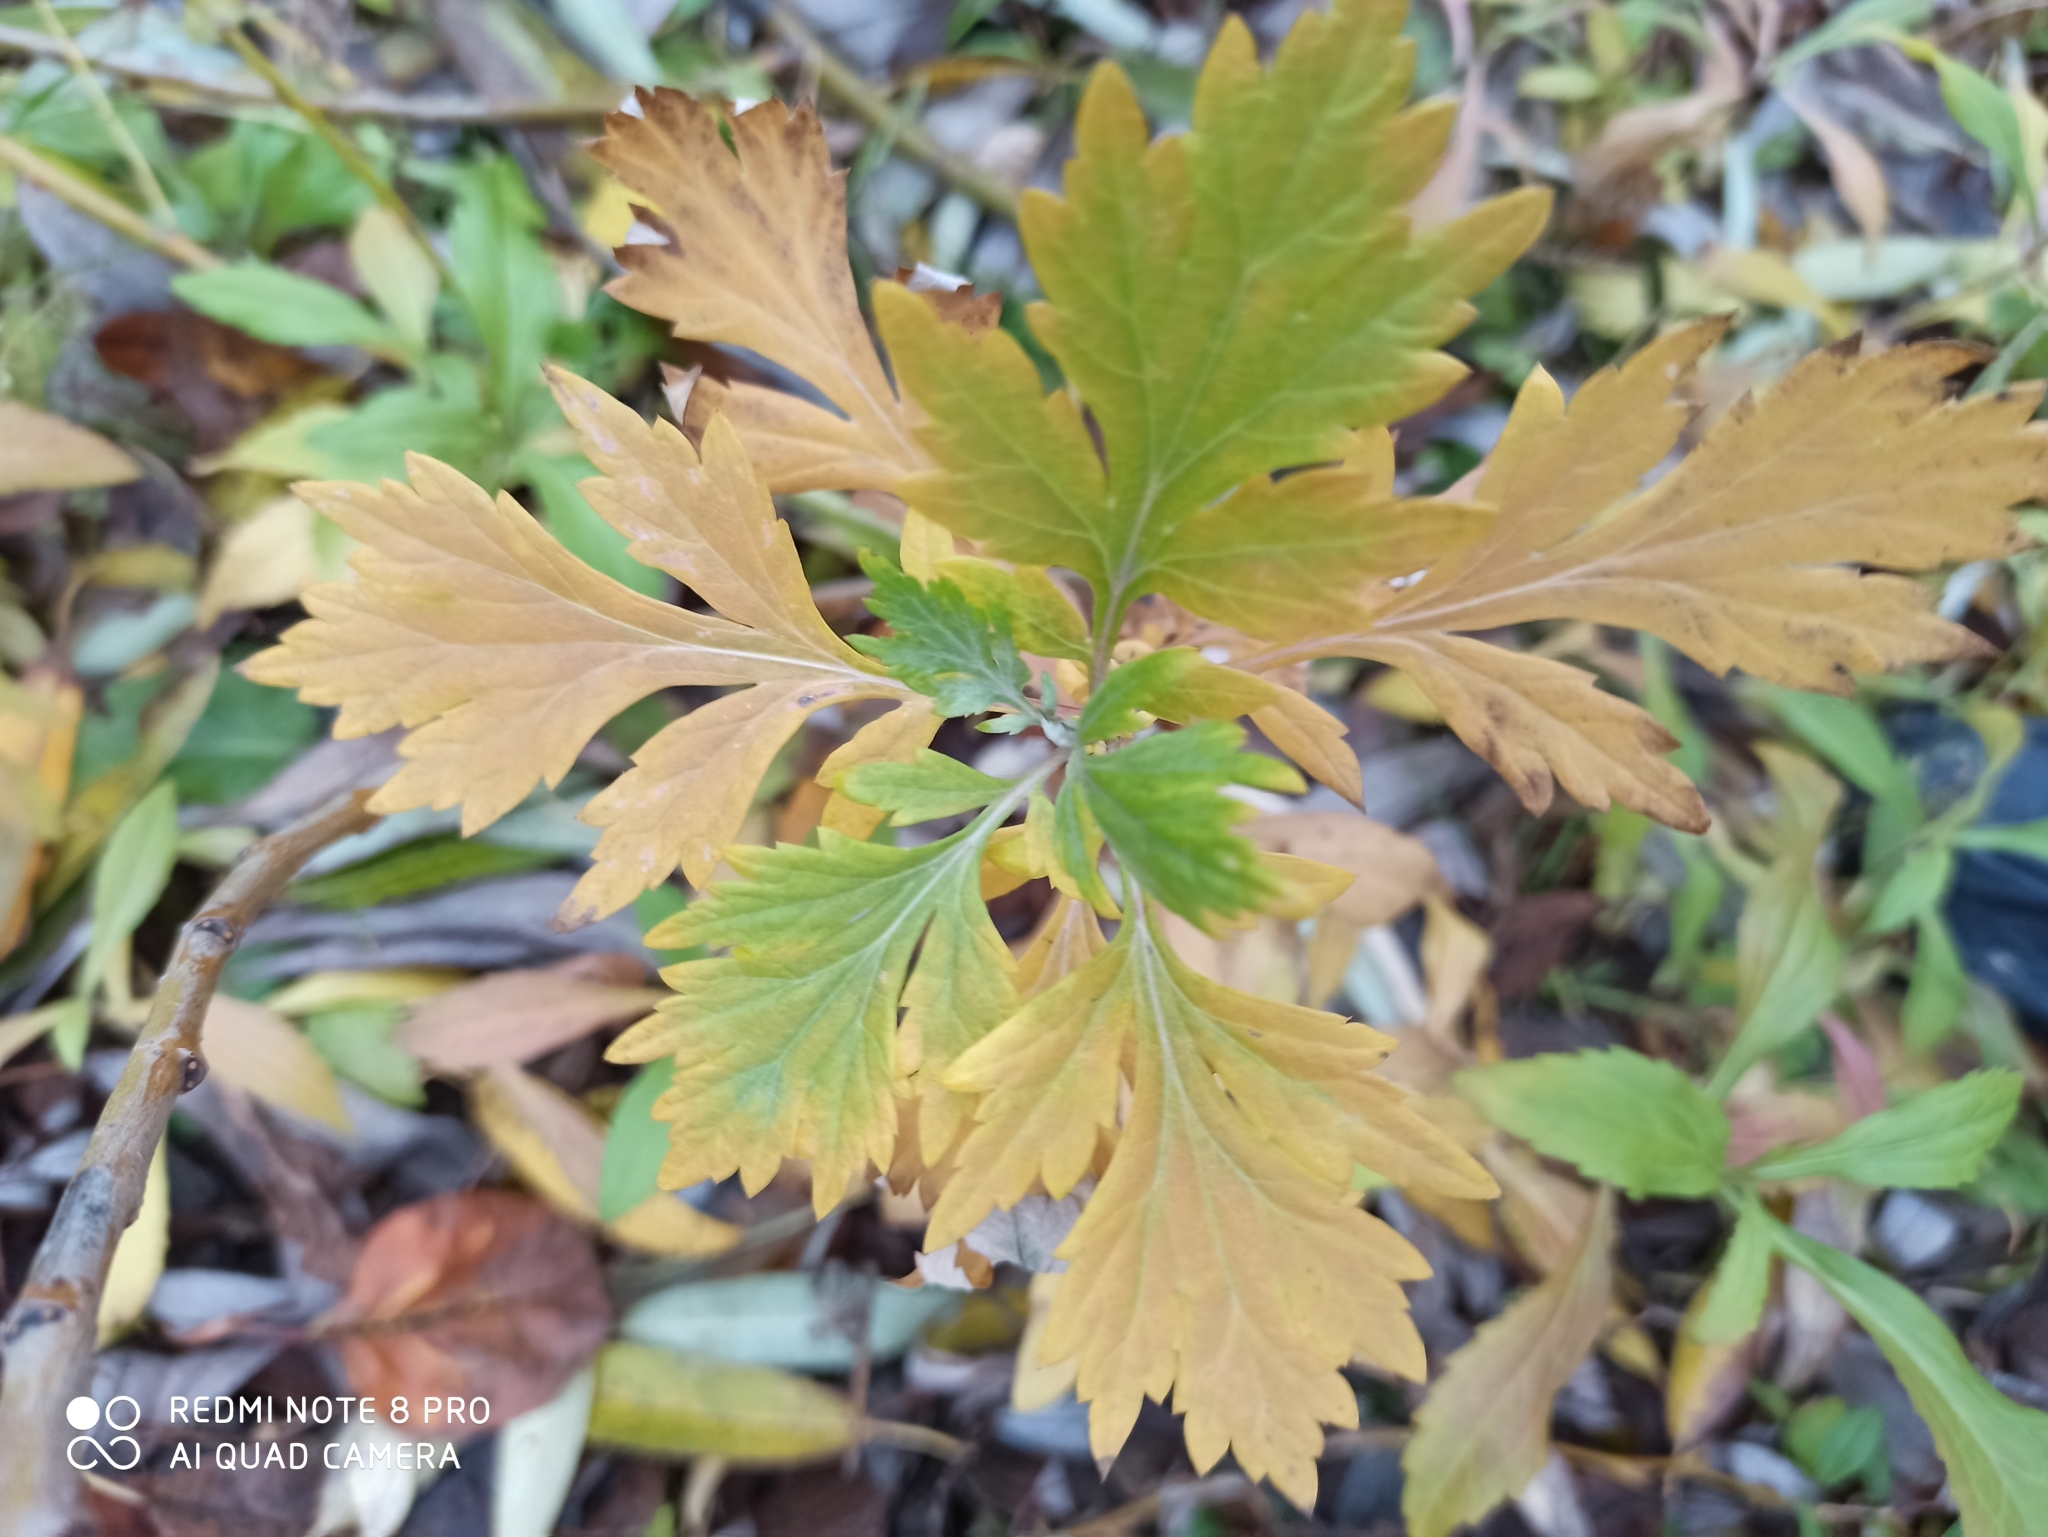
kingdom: Plantae
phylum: Tracheophyta
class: Magnoliopsida
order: Asterales
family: Asteraceae
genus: Artemisia
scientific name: Artemisia vulgaris
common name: Mugwort
